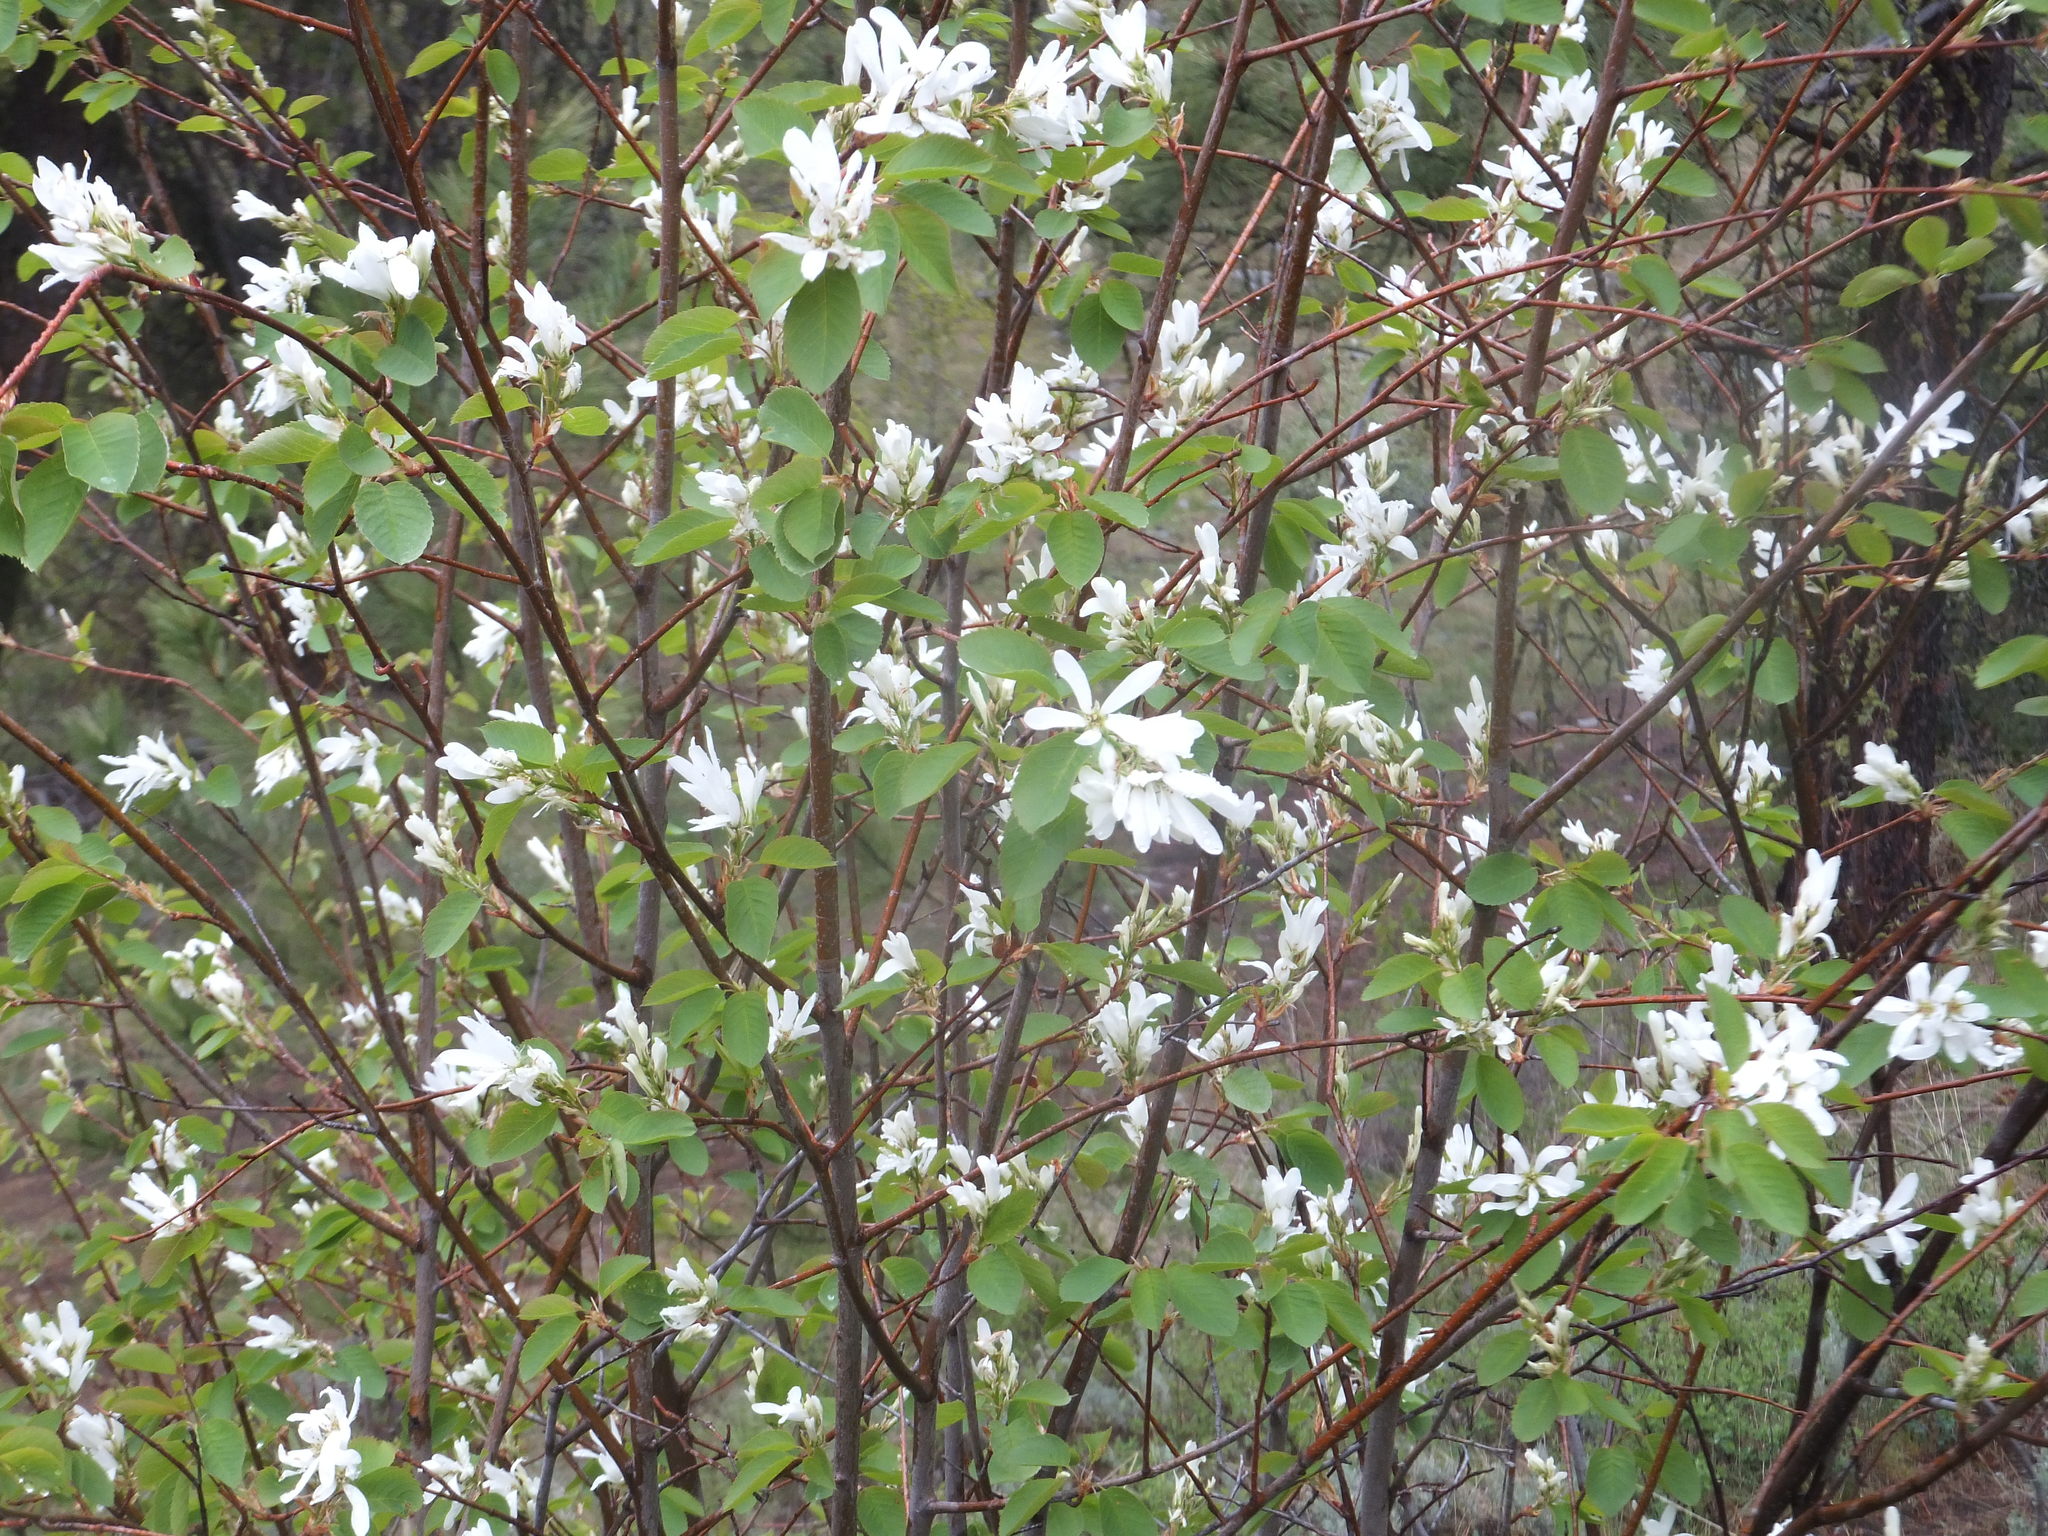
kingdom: Plantae
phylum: Tracheophyta
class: Magnoliopsida
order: Rosales
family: Rosaceae
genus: Amelanchier
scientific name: Amelanchier alnifolia
